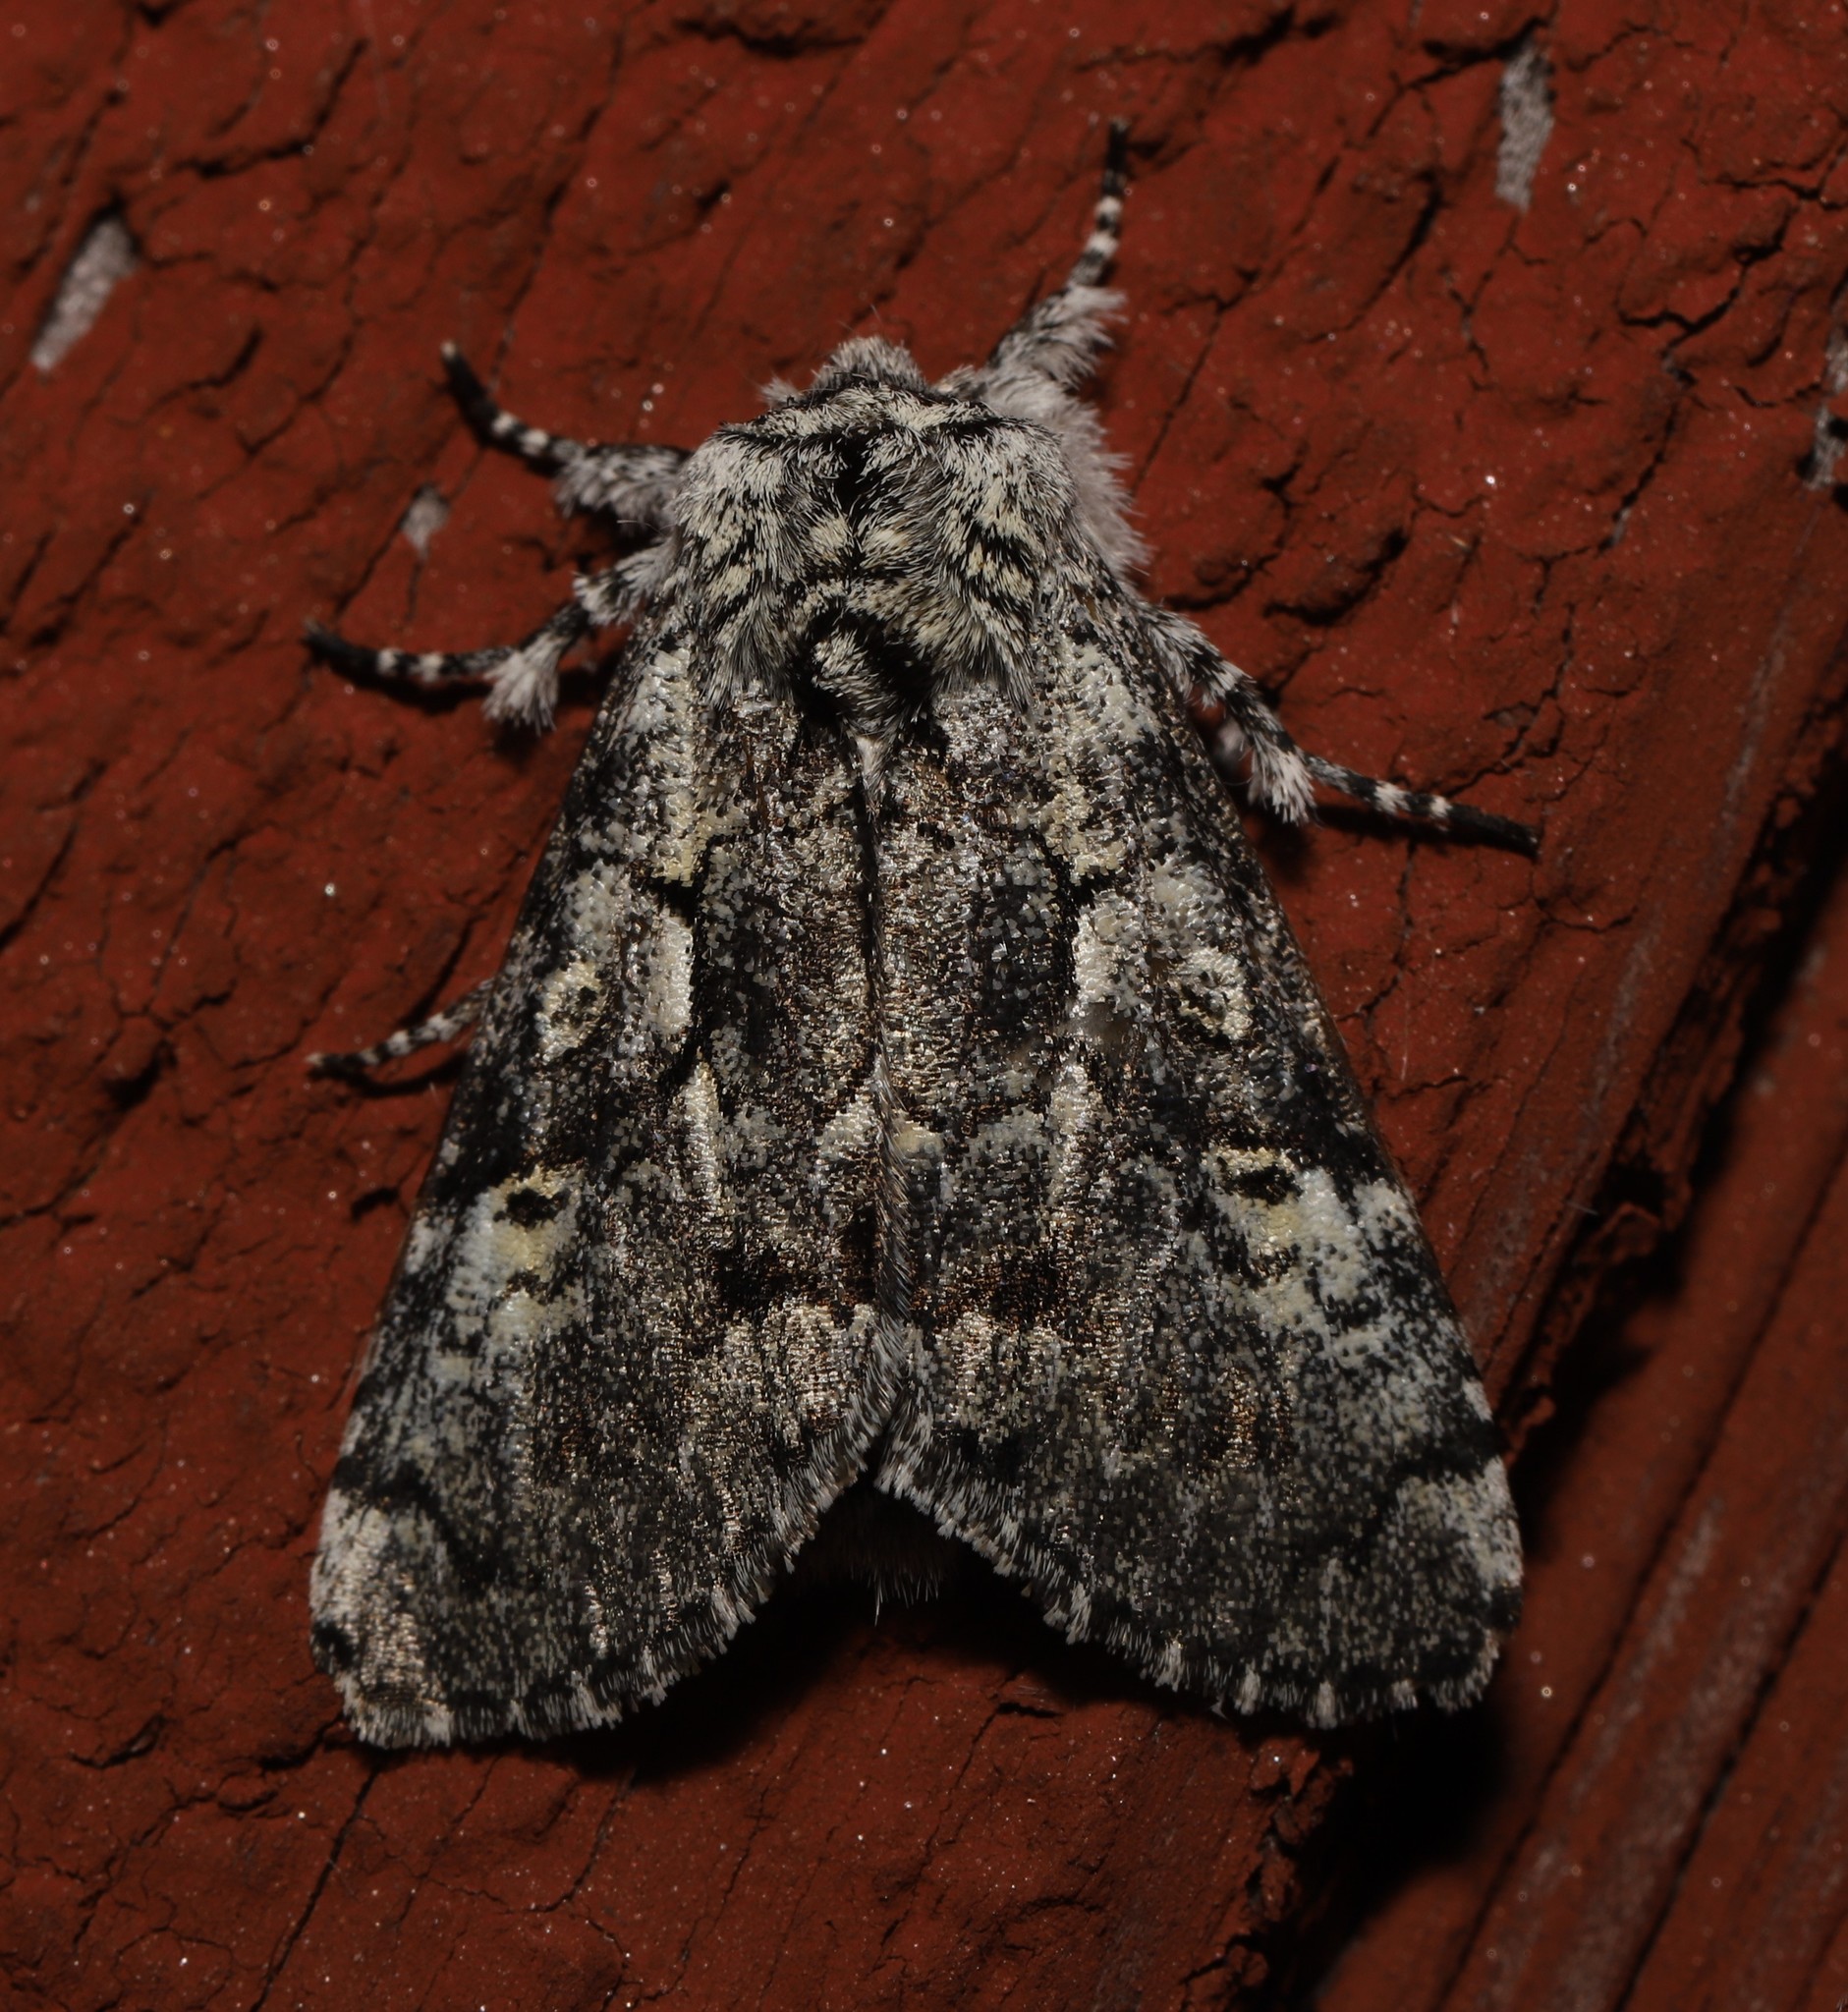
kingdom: Animalia
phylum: Arthropoda
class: Insecta
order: Lepidoptera
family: Noctuidae
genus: Charadra
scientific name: Charadra deridens
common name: Marbled tuffet
